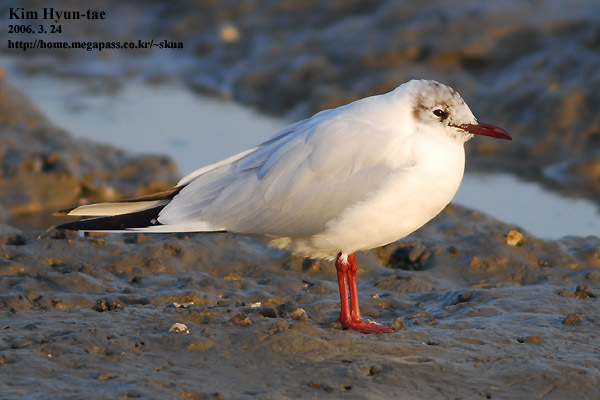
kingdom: Animalia
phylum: Chordata
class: Aves
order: Charadriiformes
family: Laridae
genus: Chroicocephalus
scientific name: Chroicocephalus ridibundus
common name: Black-headed gull
